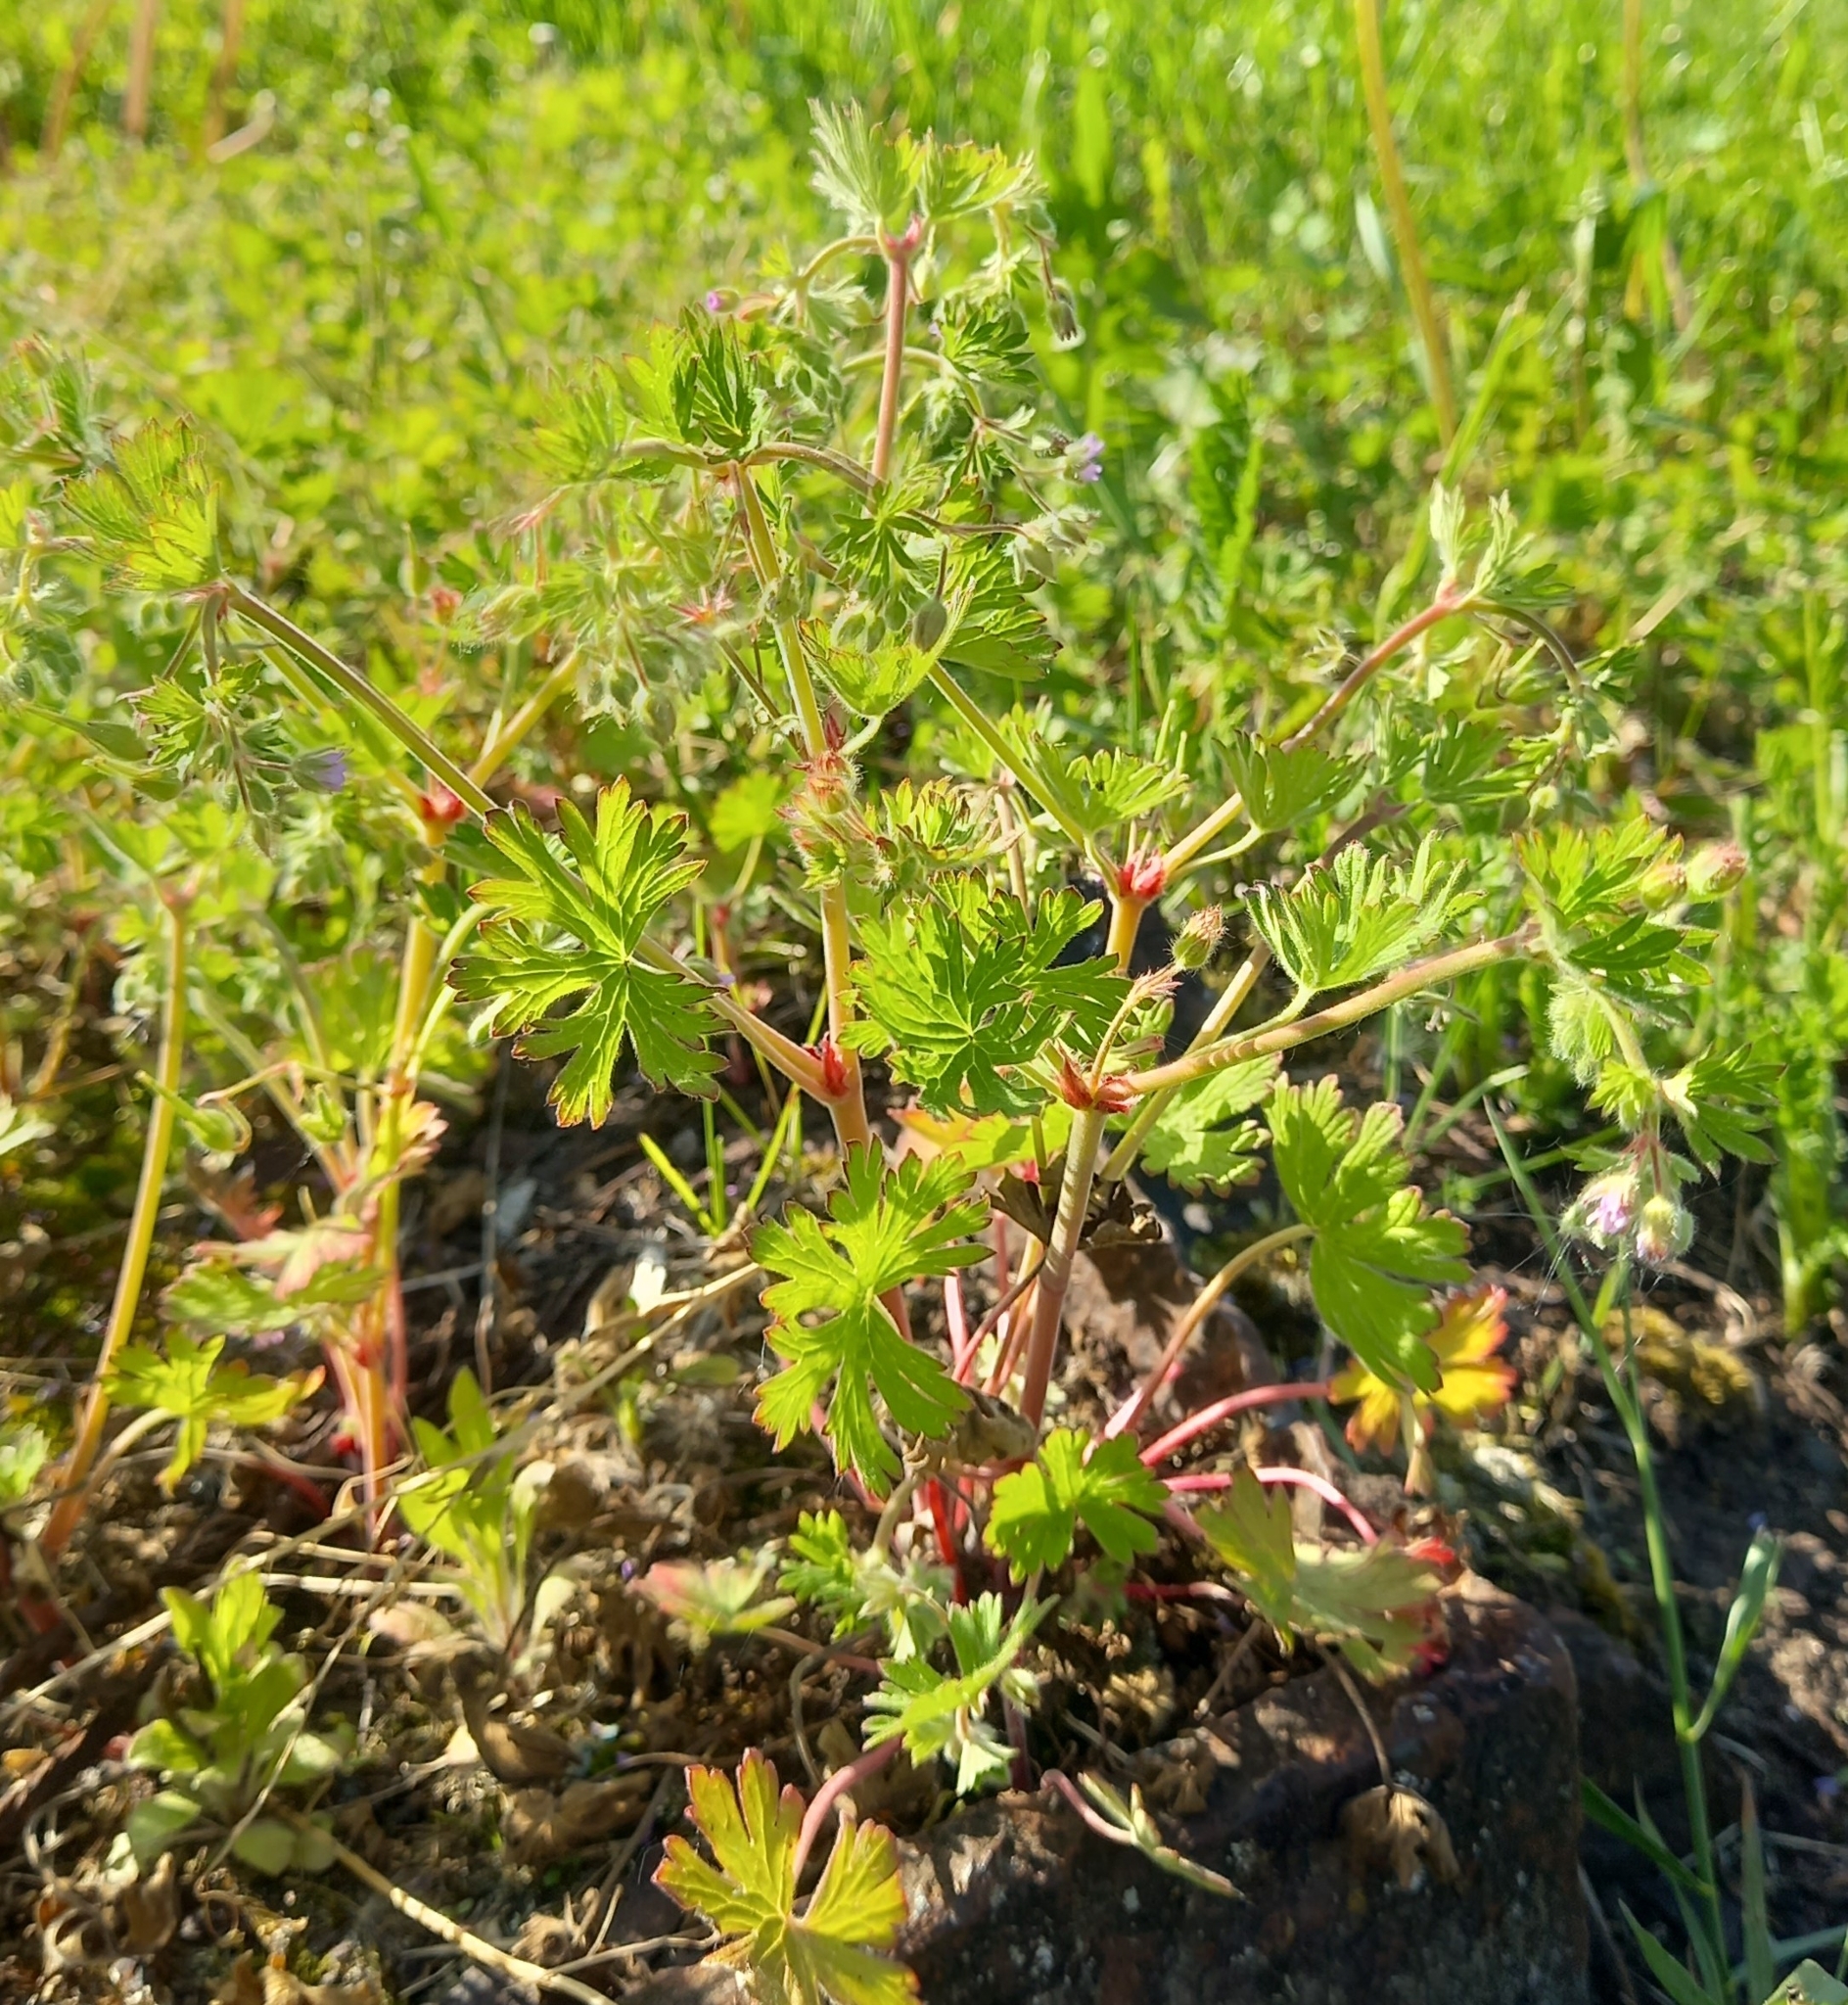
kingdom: Plantae
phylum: Tracheophyta
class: Magnoliopsida
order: Geraniales
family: Geraniaceae
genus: Geranium
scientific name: Geranium pusillum
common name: Small geranium
